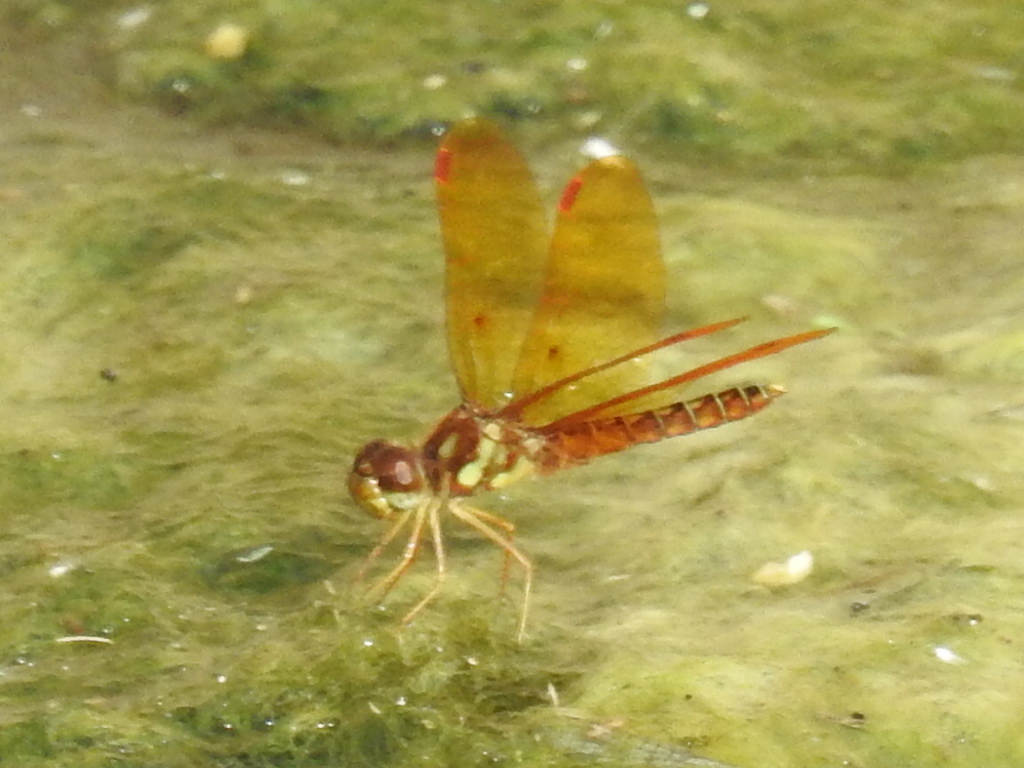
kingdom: Animalia
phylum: Arthropoda
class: Insecta
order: Odonata
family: Libellulidae
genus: Perithemis
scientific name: Perithemis tenera
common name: Eastern amberwing
